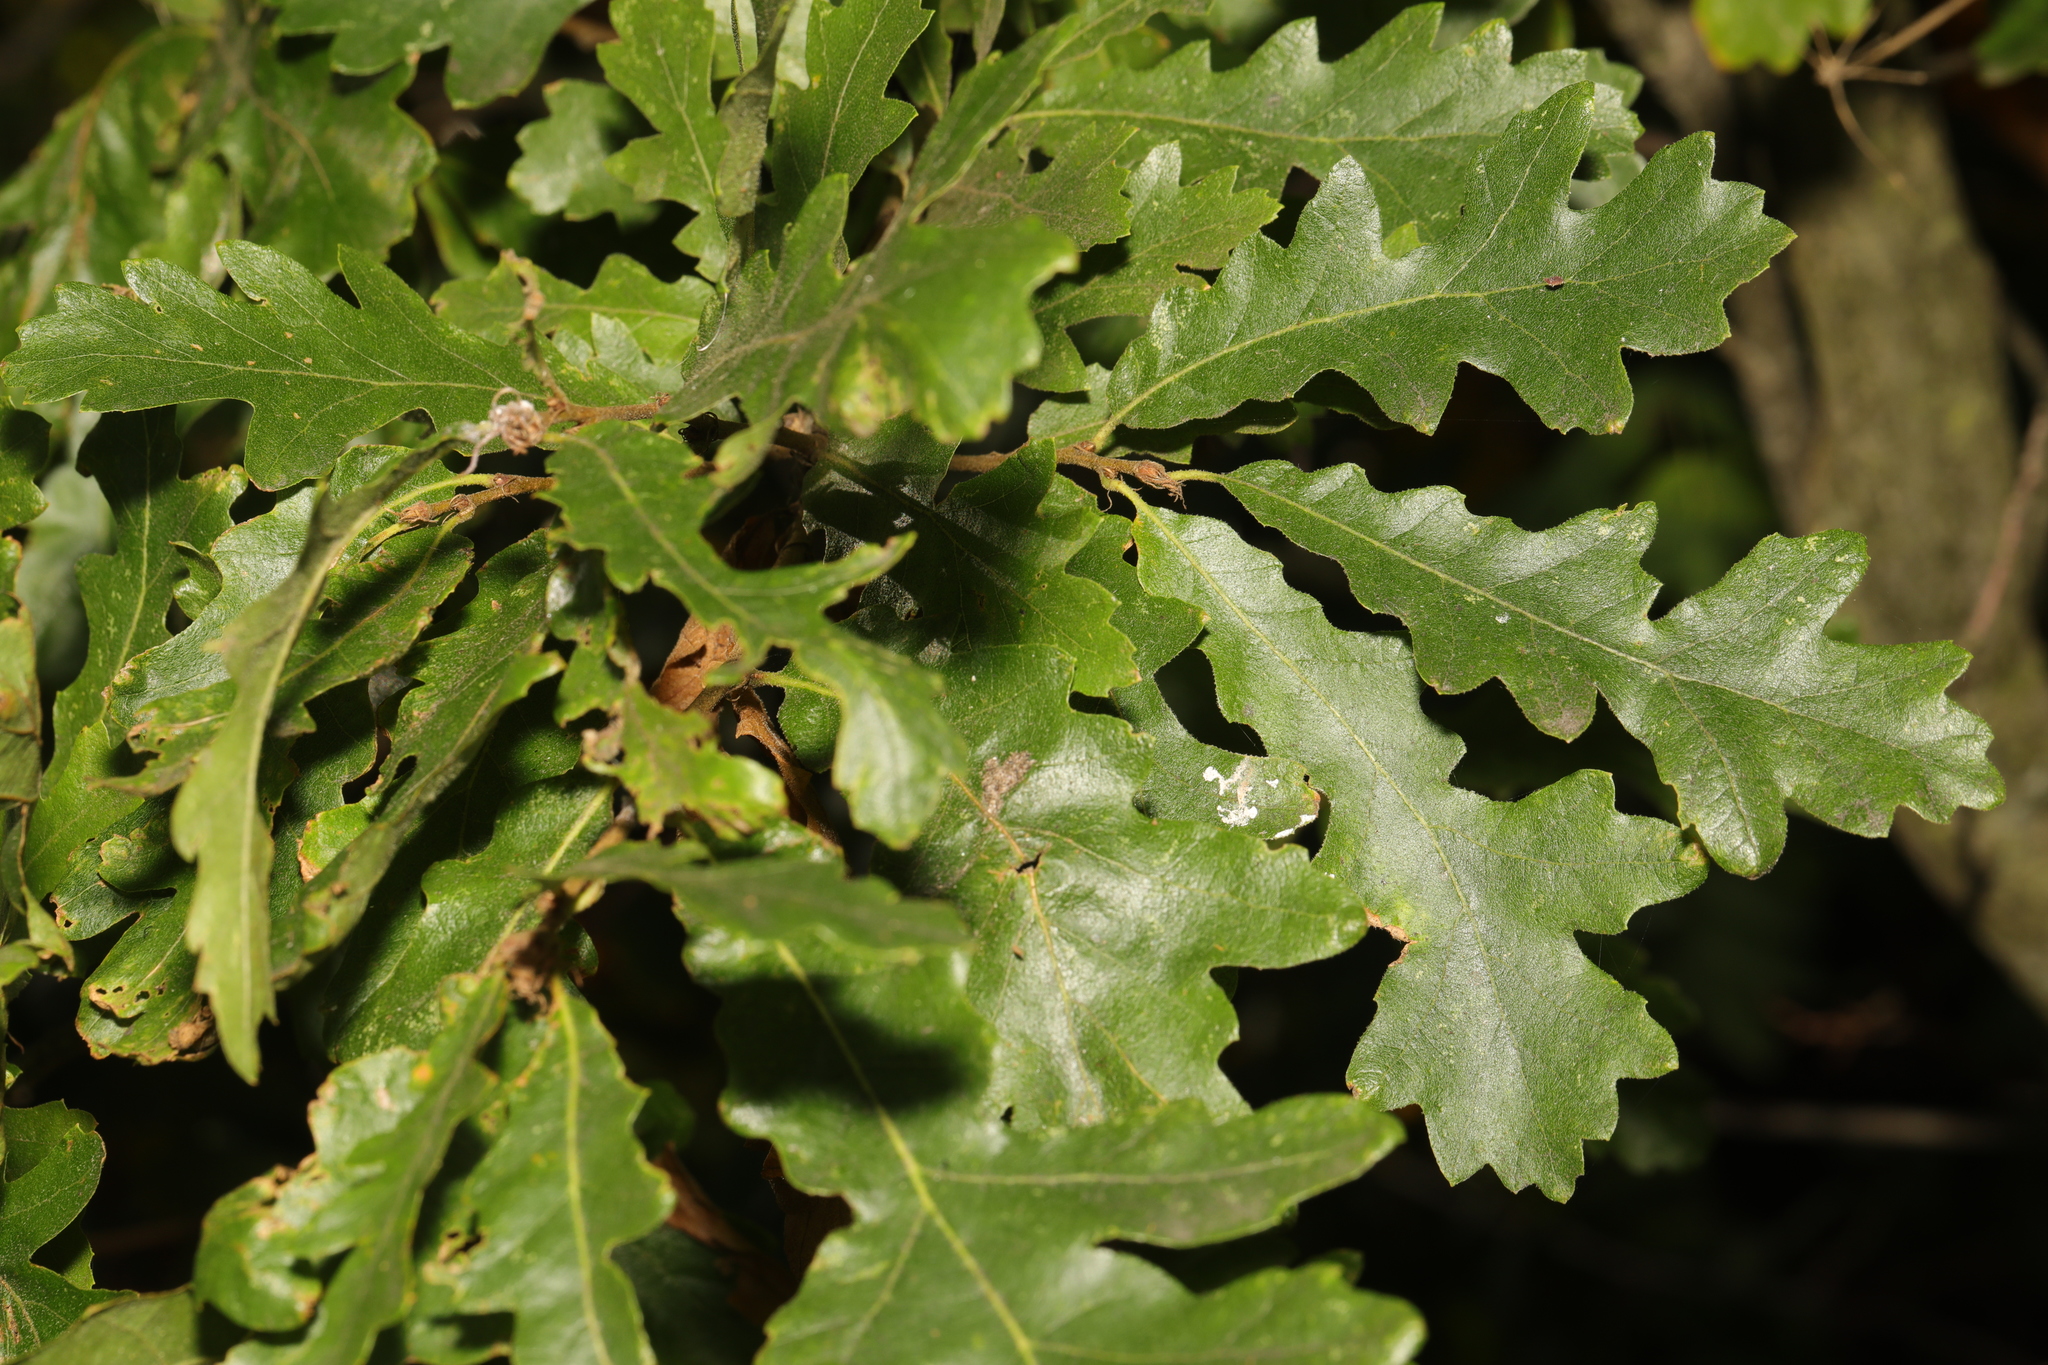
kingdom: Plantae
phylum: Tracheophyta
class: Magnoliopsida
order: Fagales
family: Fagaceae
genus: Quercus
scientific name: Quercus cerris
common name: Turkey oak
